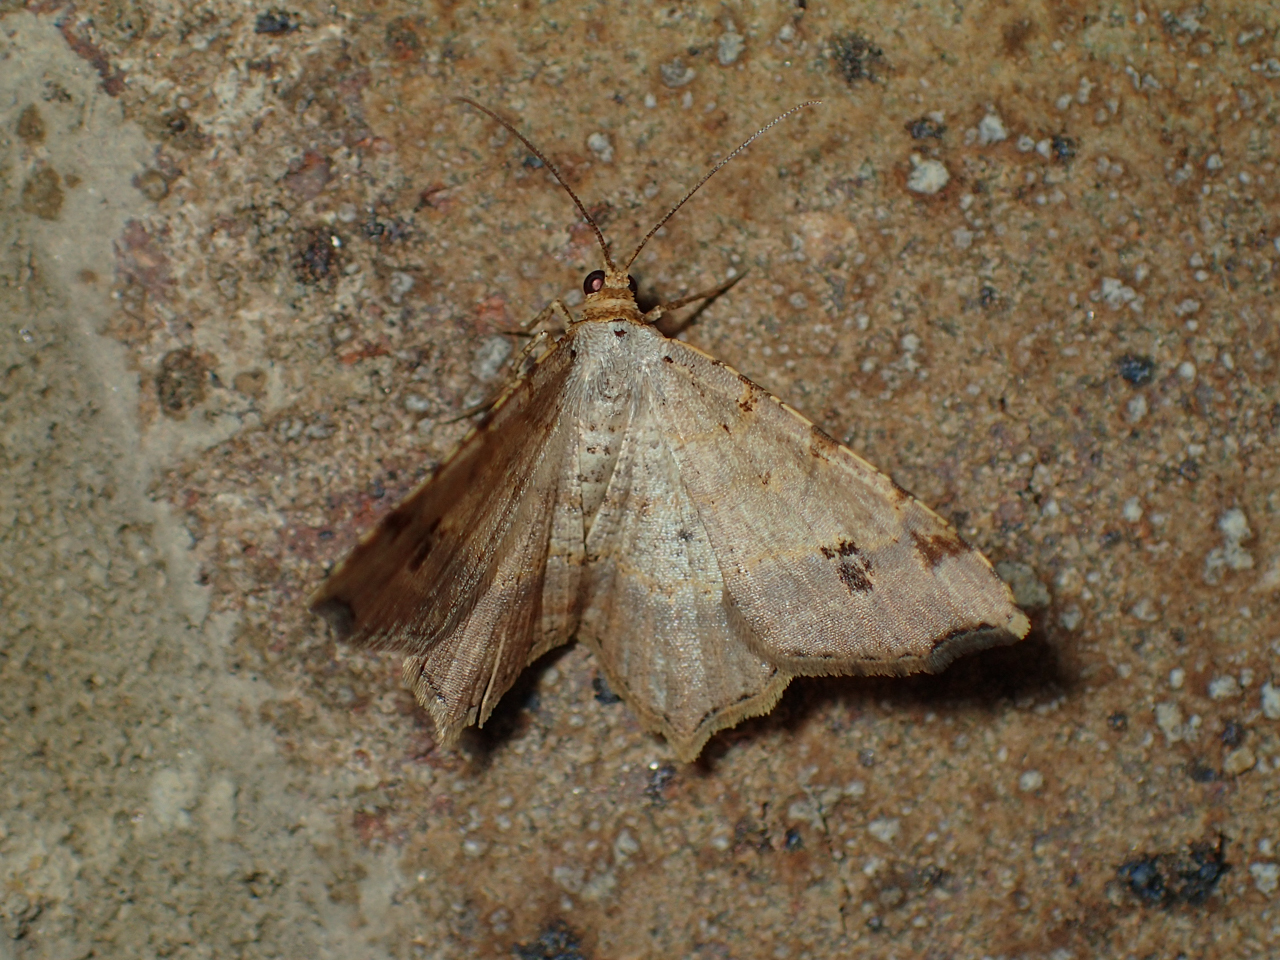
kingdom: Animalia
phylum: Arthropoda
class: Insecta
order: Lepidoptera
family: Geometridae
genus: Macaria
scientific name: Macaria aemulataria
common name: Common angle
